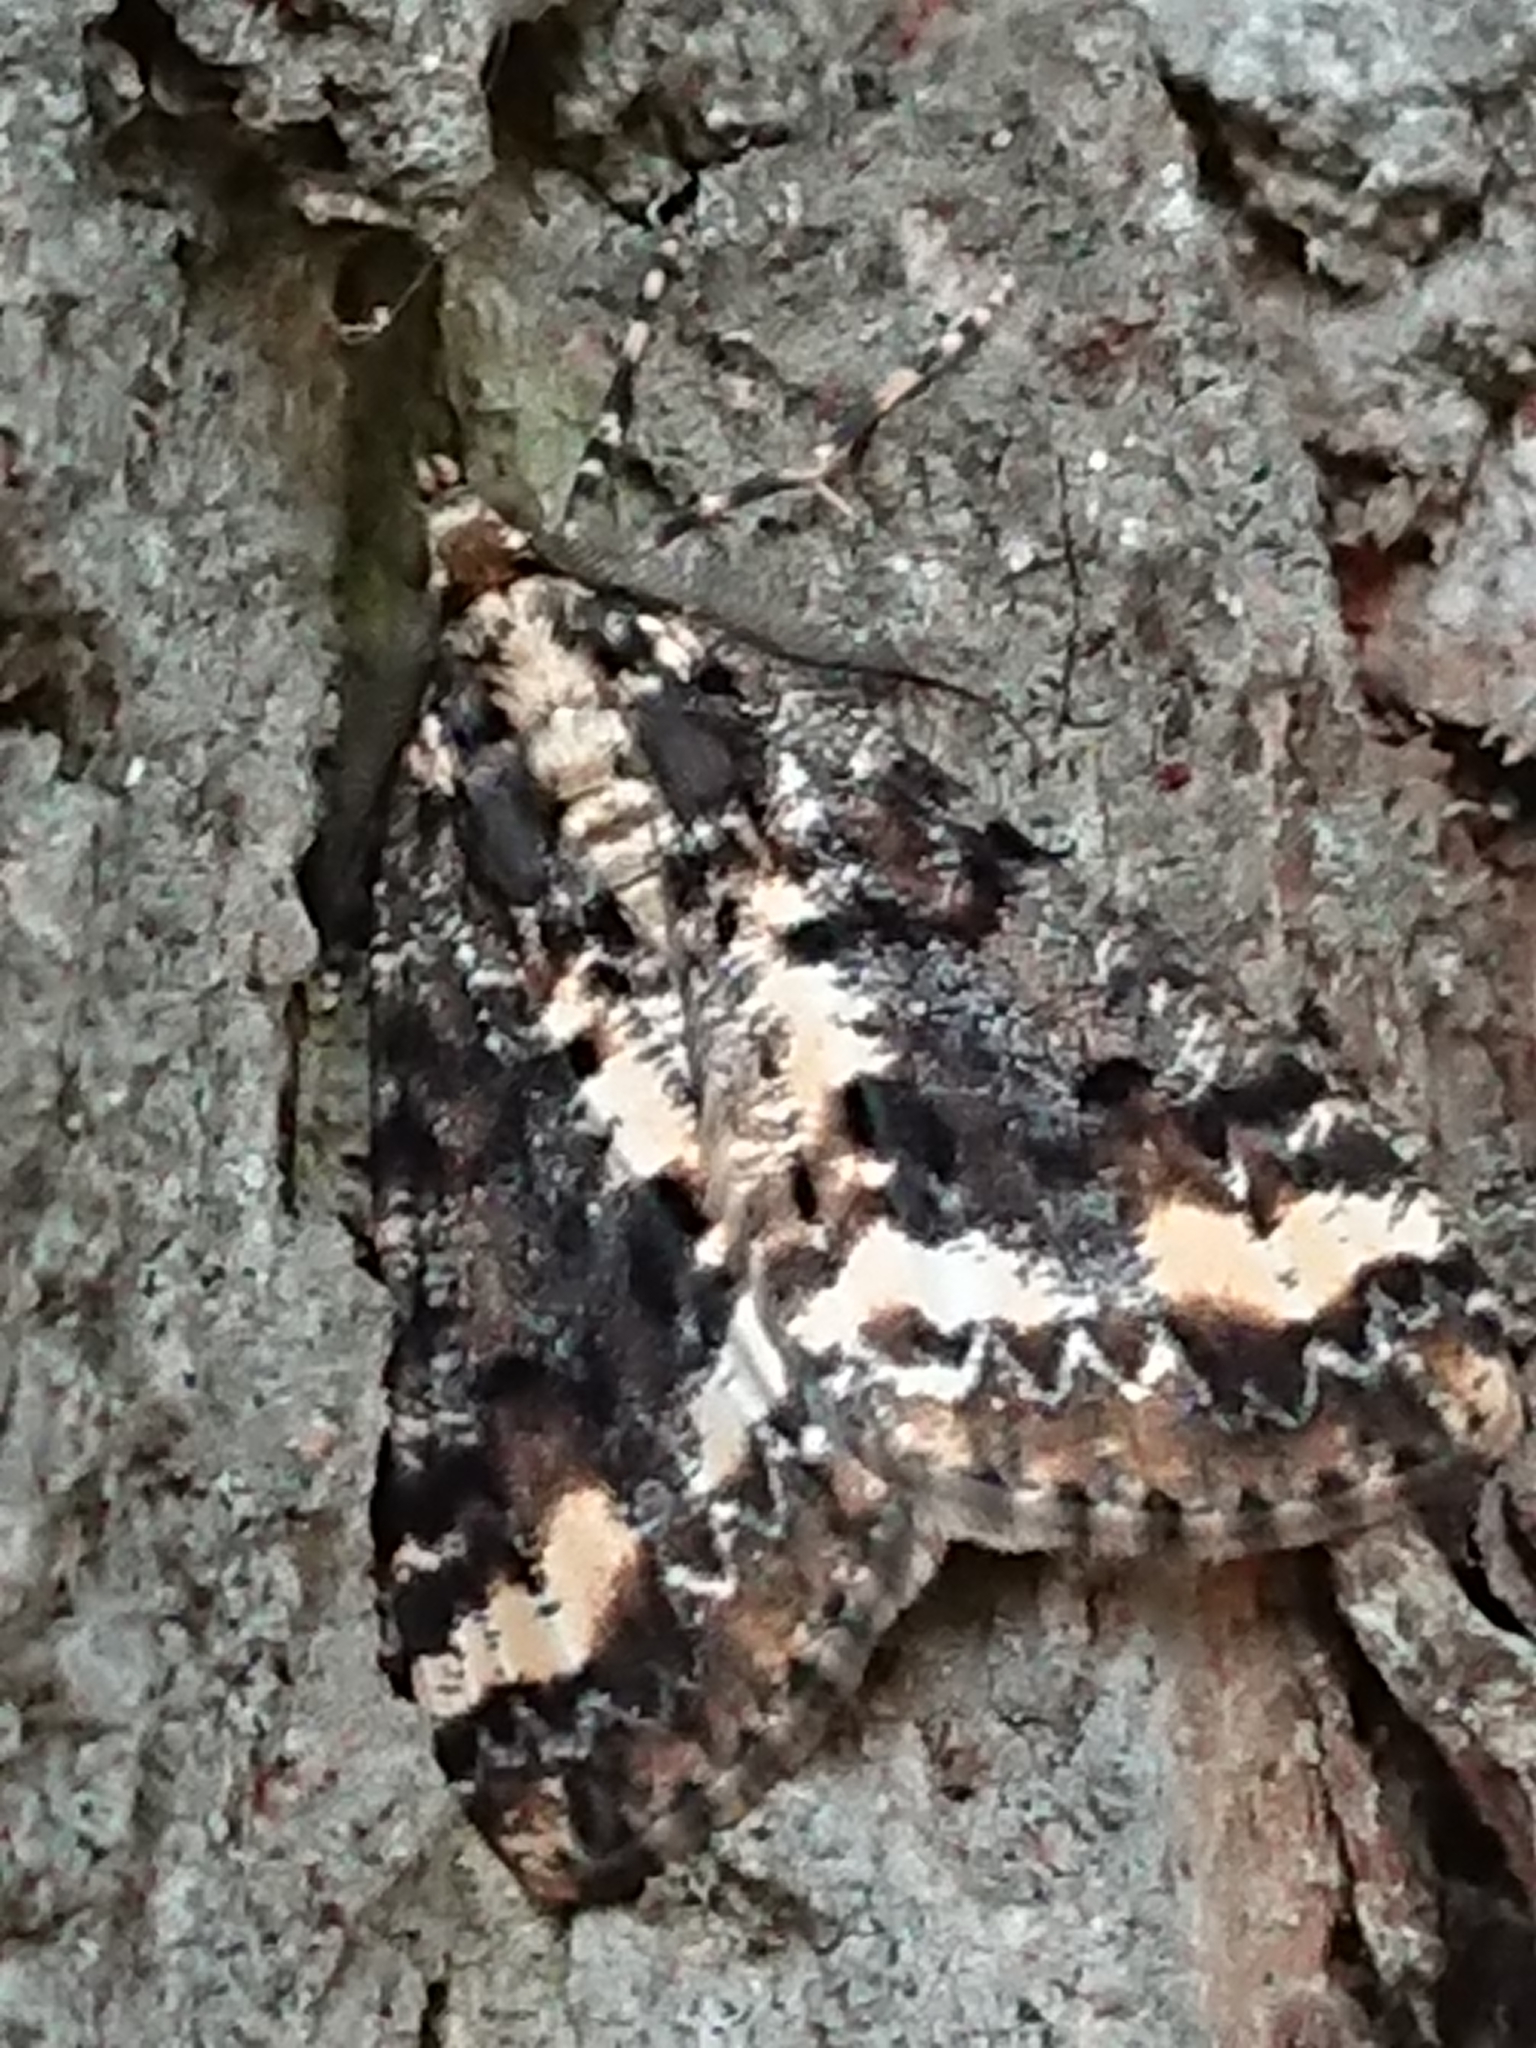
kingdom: Animalia
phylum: Arthropoda
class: Insecta
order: Lepidoptera
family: Geometridae
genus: Pseudocoremia
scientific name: Pseudocoremia leucelaea
